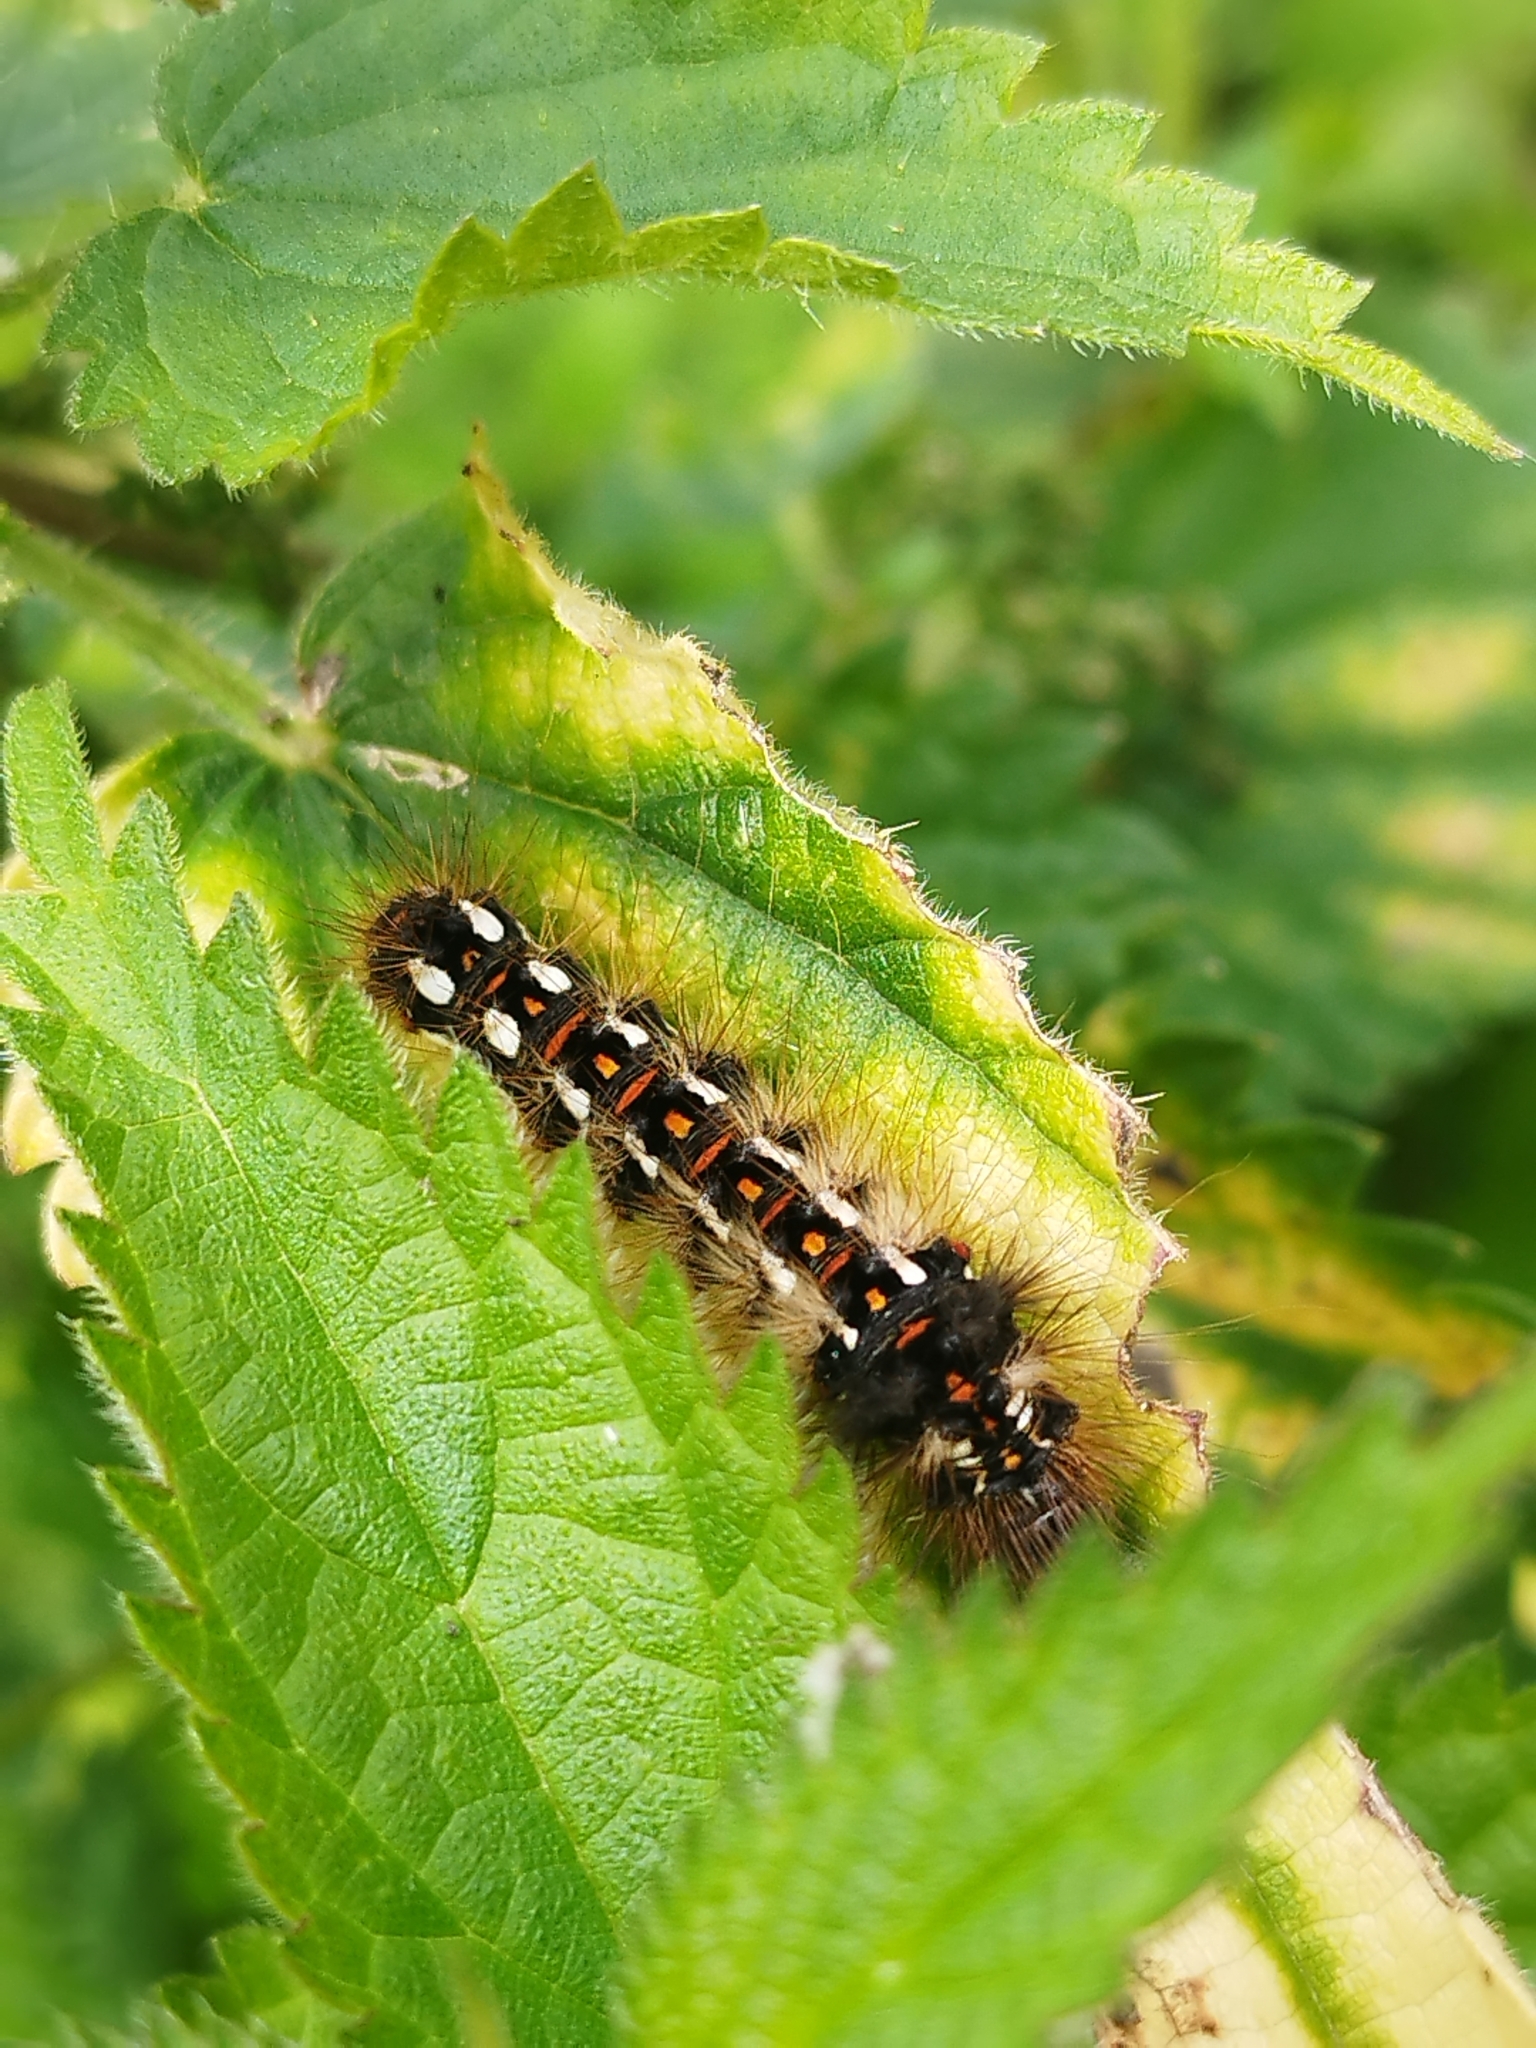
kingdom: Animalia
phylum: Arthropoda
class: Insecta
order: Lepidoptera
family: Noctuidae
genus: Acronicta
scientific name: Acronicta rumicis
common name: Knot grass
